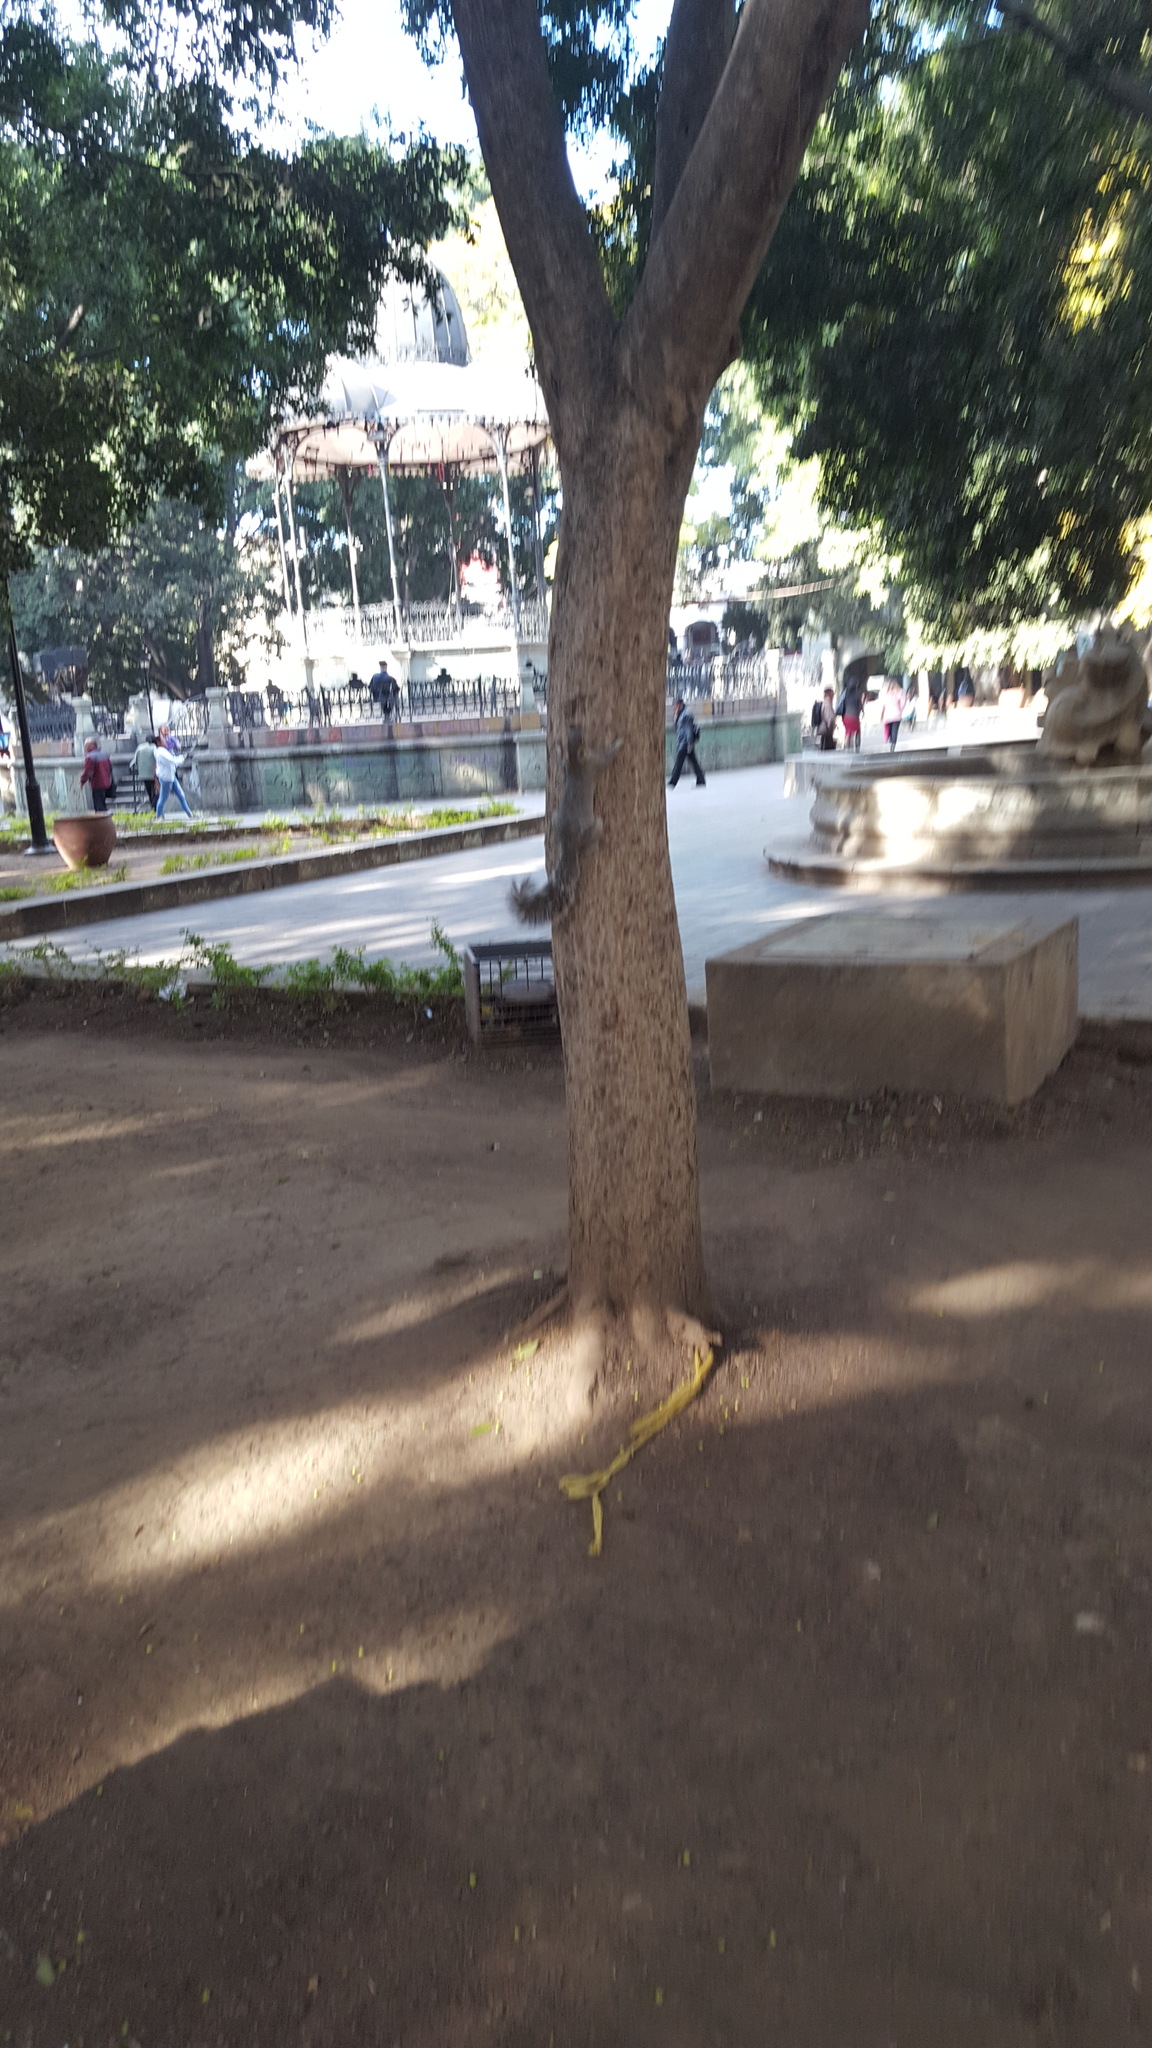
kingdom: Animalia
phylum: Chordata
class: Mammalia
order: Rodentia
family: Sciuridae
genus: Sciurus
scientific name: Sciurus aureogaster
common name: Red-bellied squirrel
